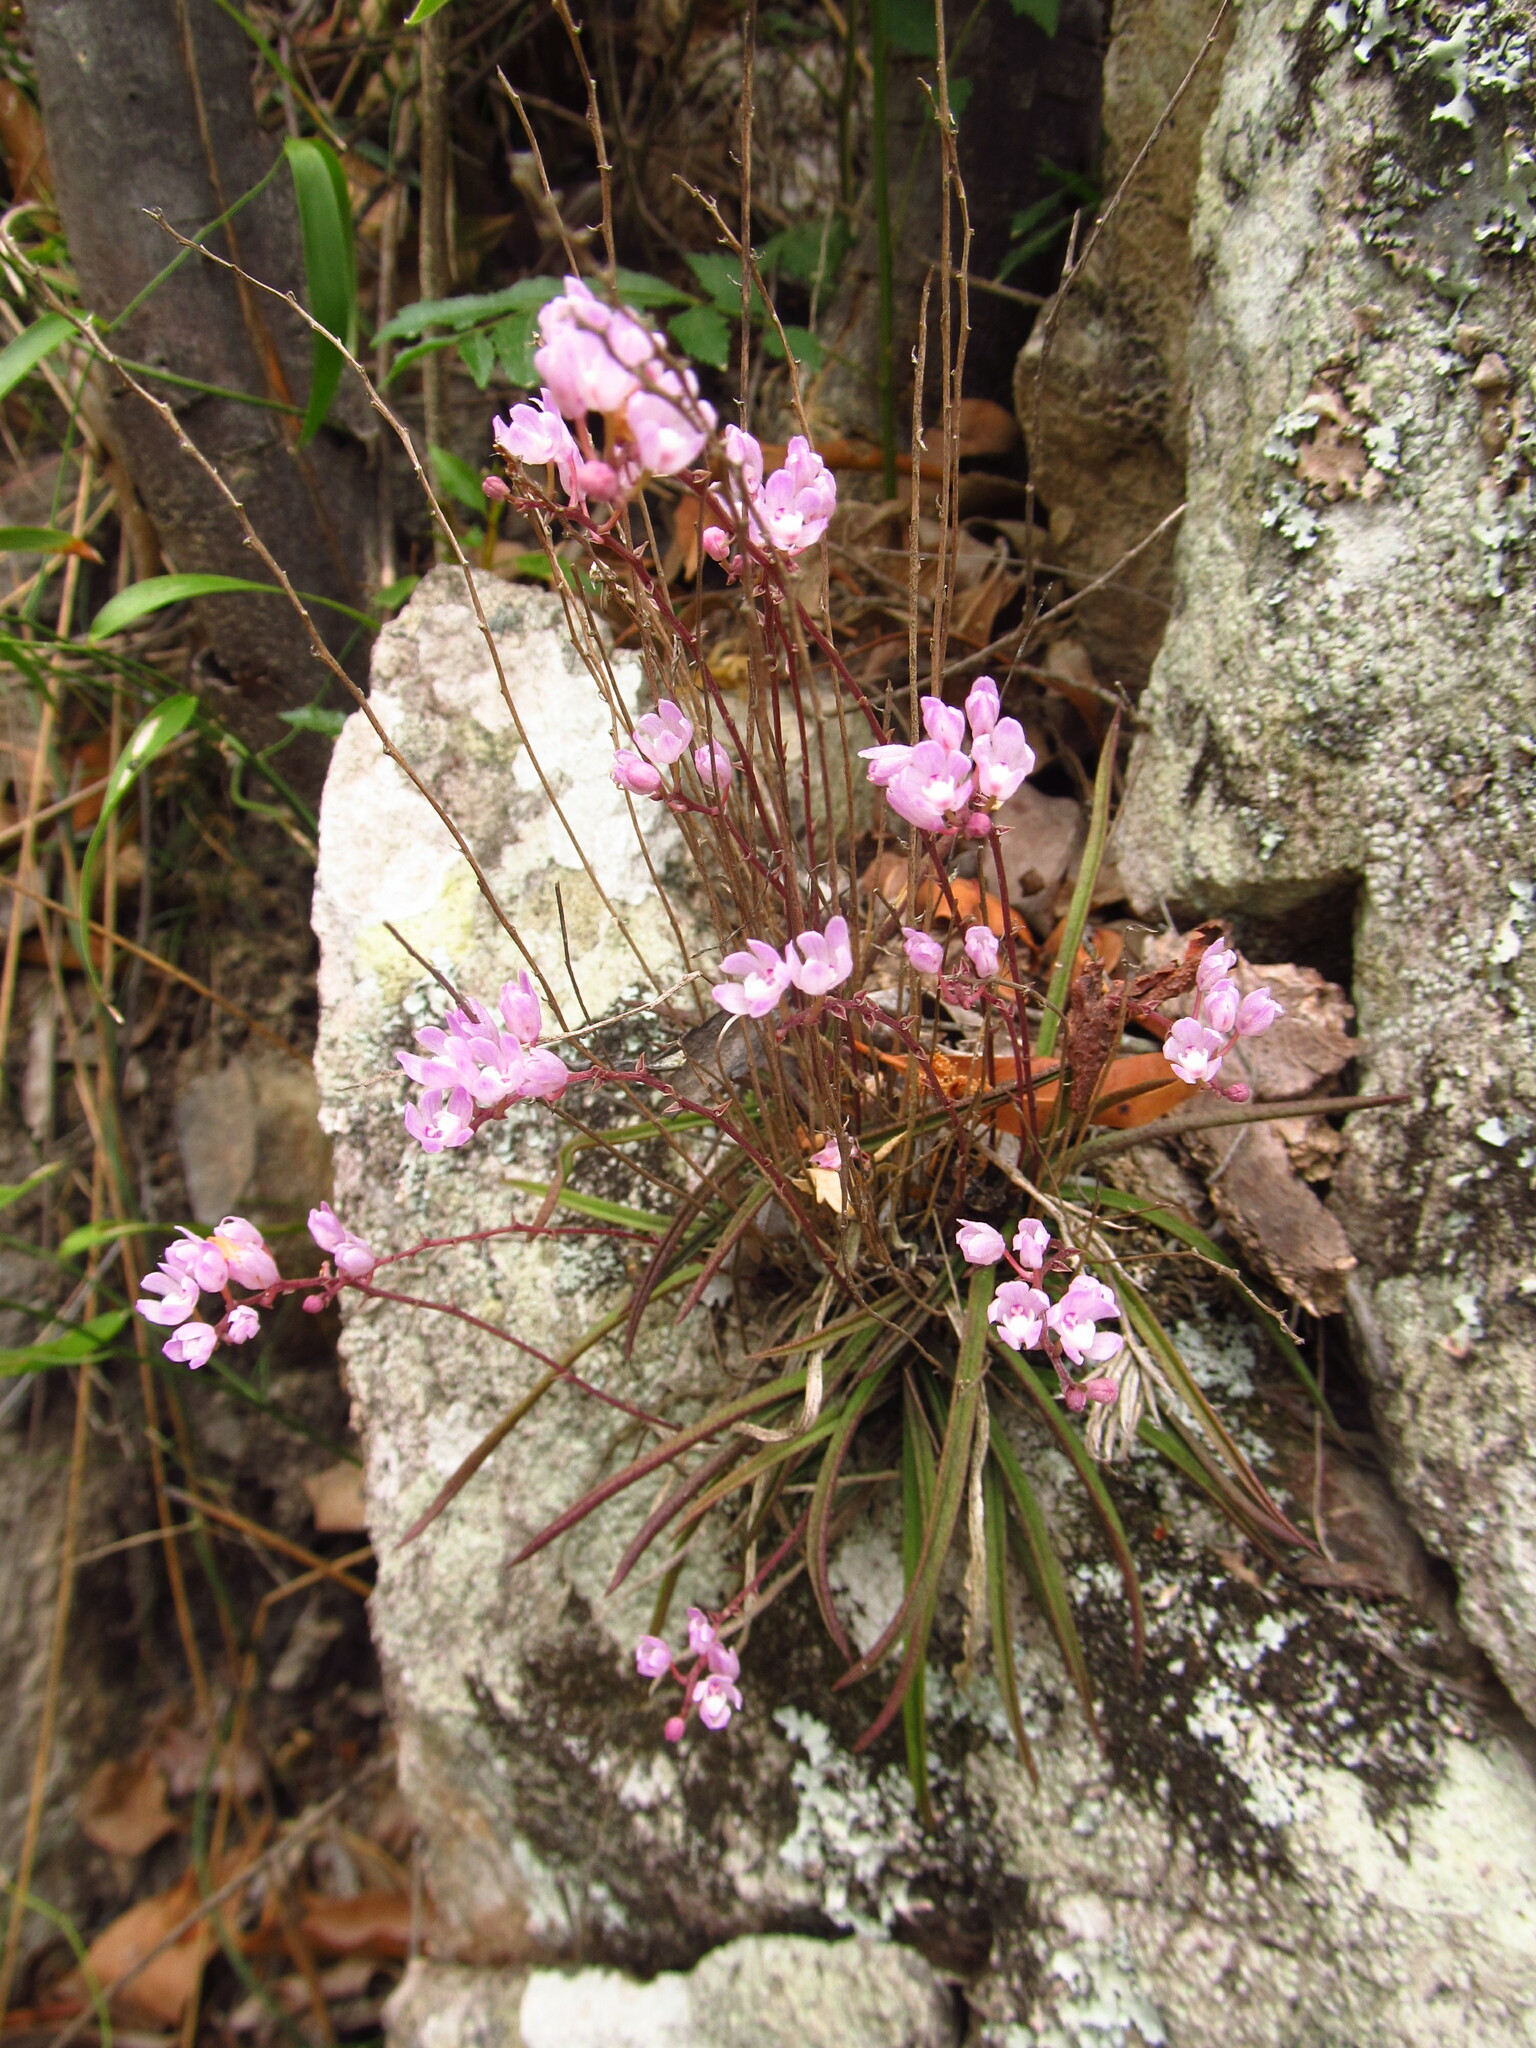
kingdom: Plantae
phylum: Tracheophyta
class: Liliopsida
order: Asparagales
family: Orchidaceae
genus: Sarcochilus
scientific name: Sarcochilus ceciliae
